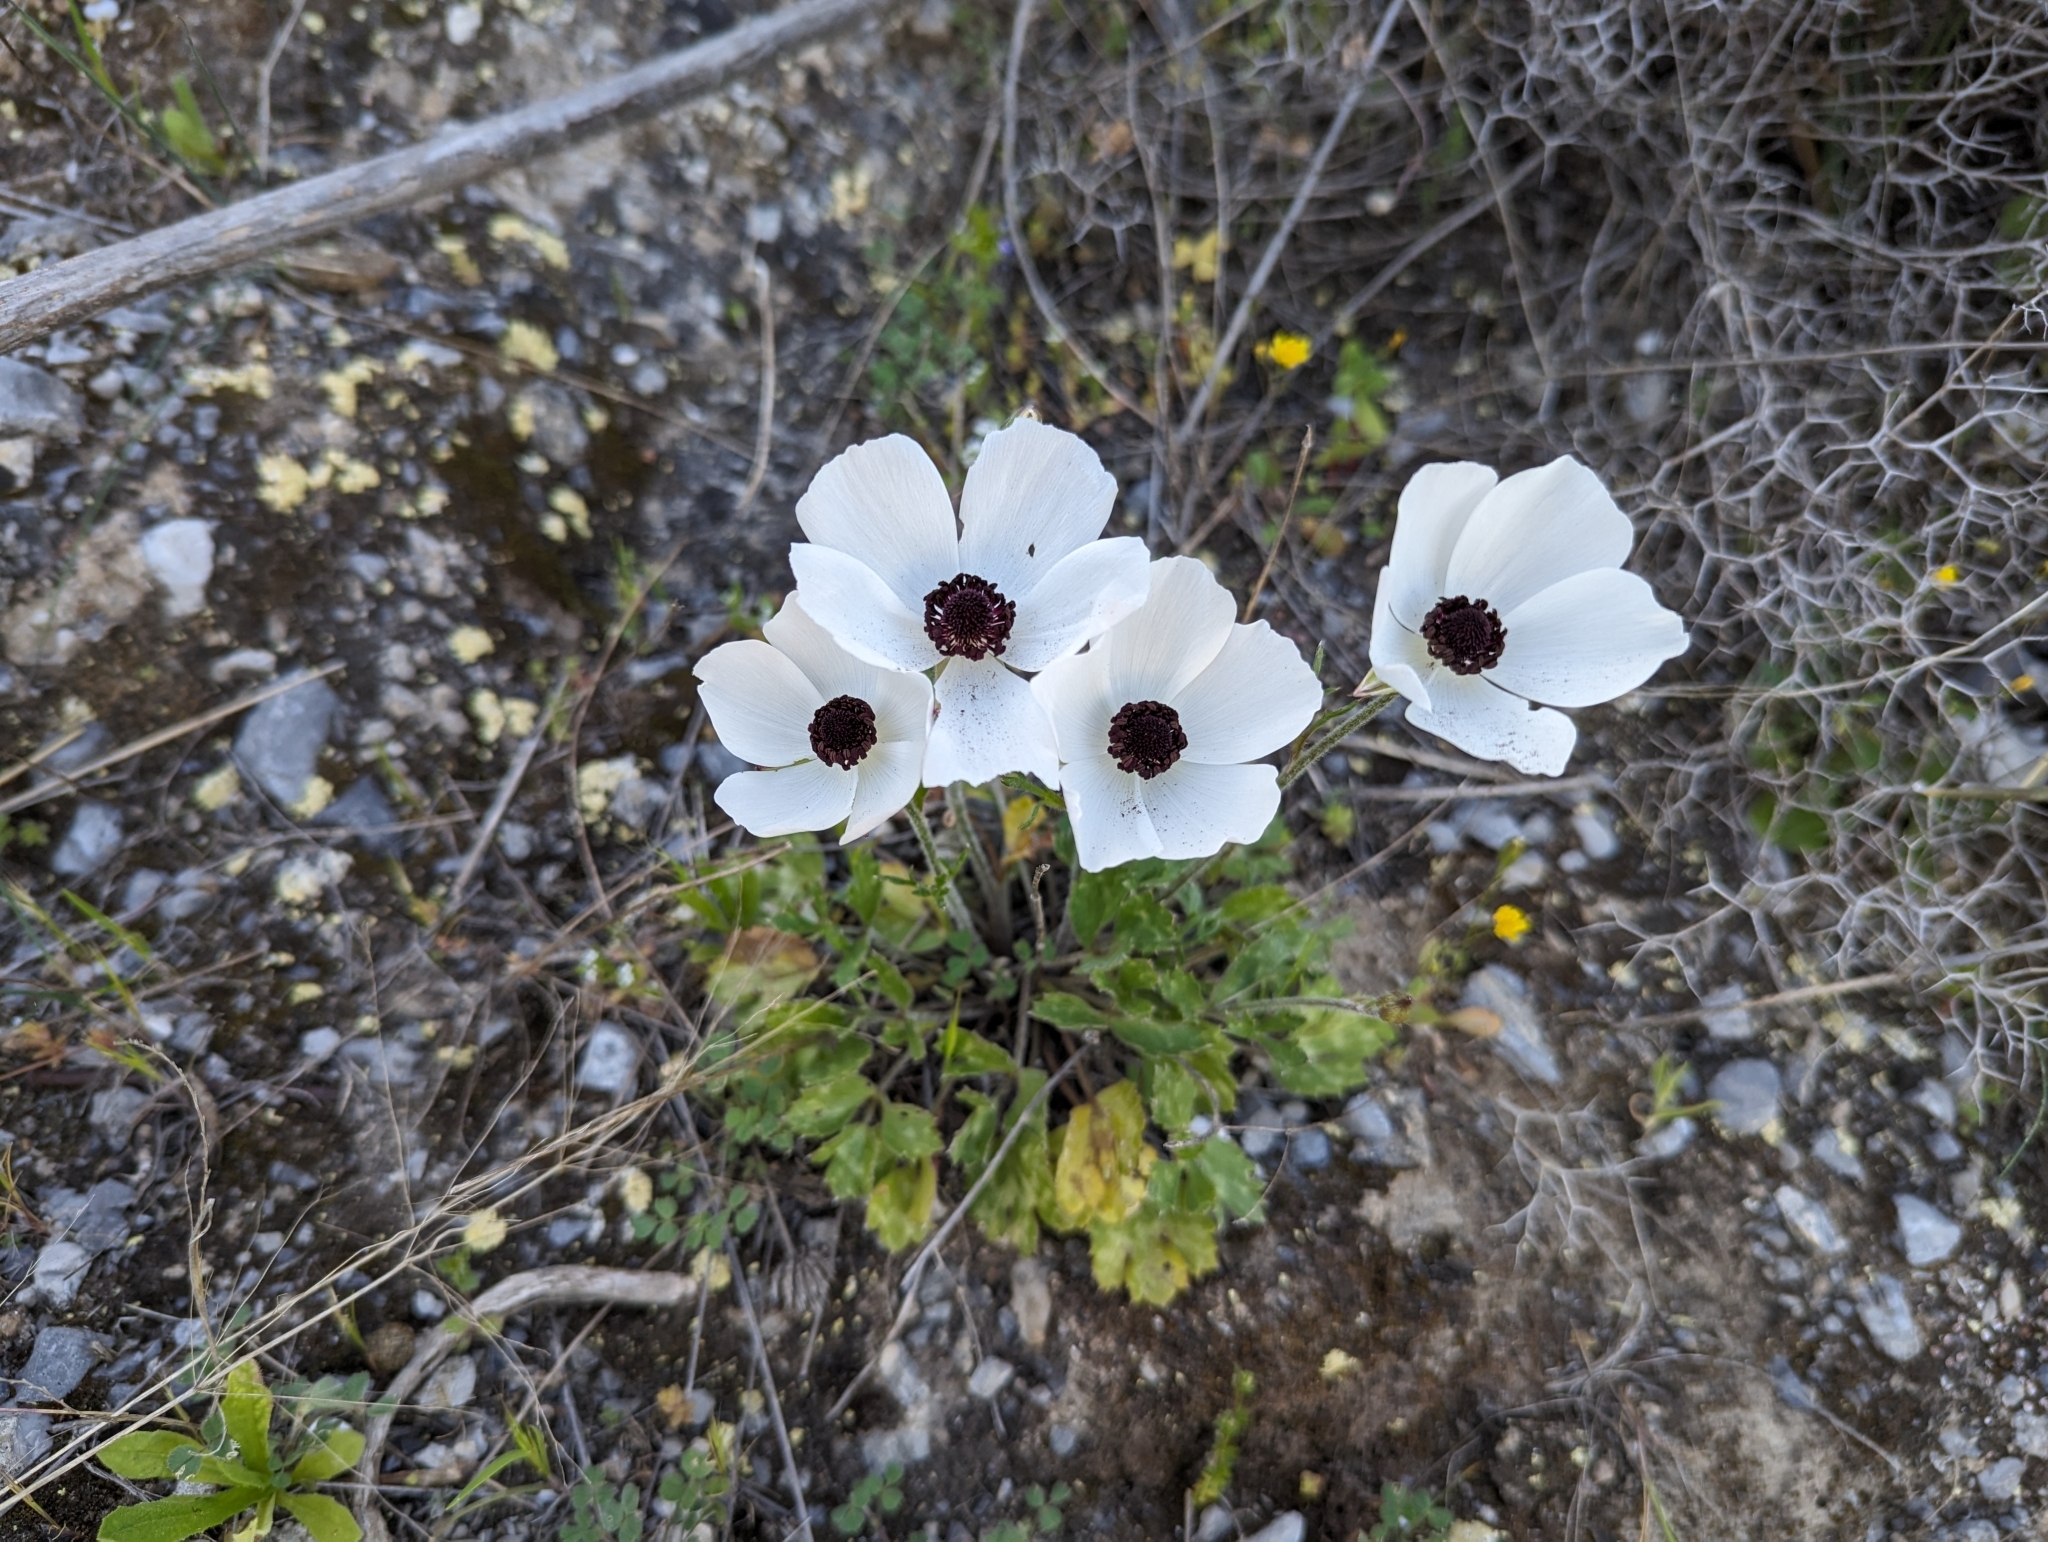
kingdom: Plantae
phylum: Tracheophyta
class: Magnoliopsida
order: Ranunculales
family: Ranunculaceae
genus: Ranunculus
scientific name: Ranunculus asiaticus
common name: Persian buttercup
